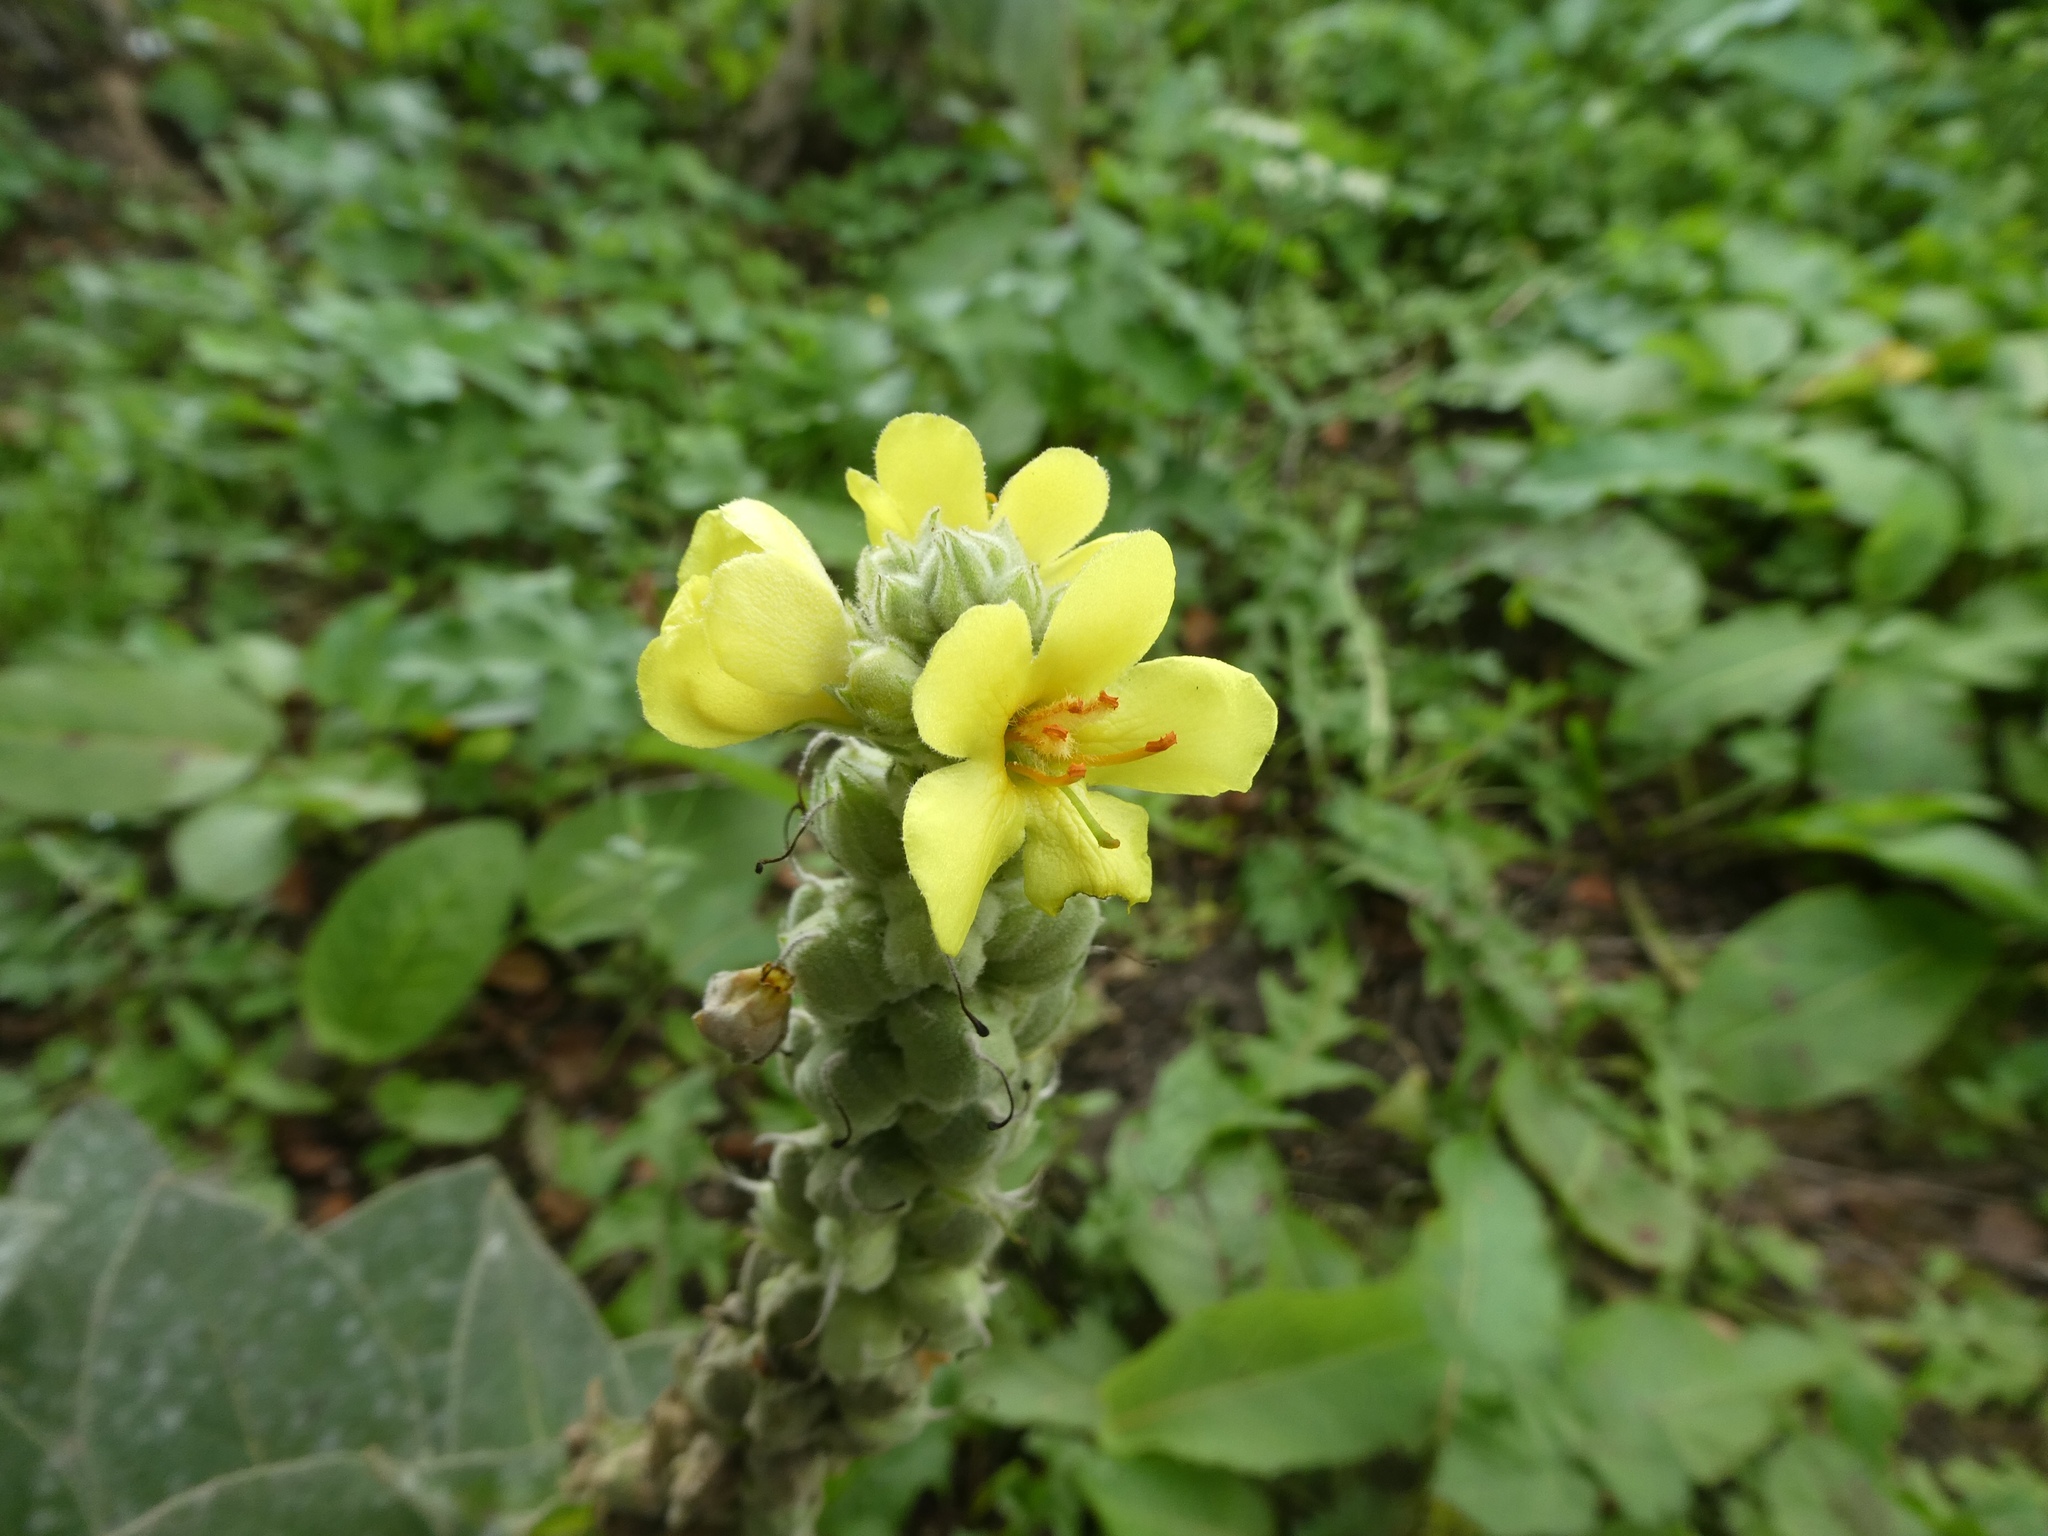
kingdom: Plantae
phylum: Tracheophyta
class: Magnoliopsida
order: Lamiales
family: Scrophulariaceae
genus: Verbascum
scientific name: Verbascum thapsus
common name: Common mullein
